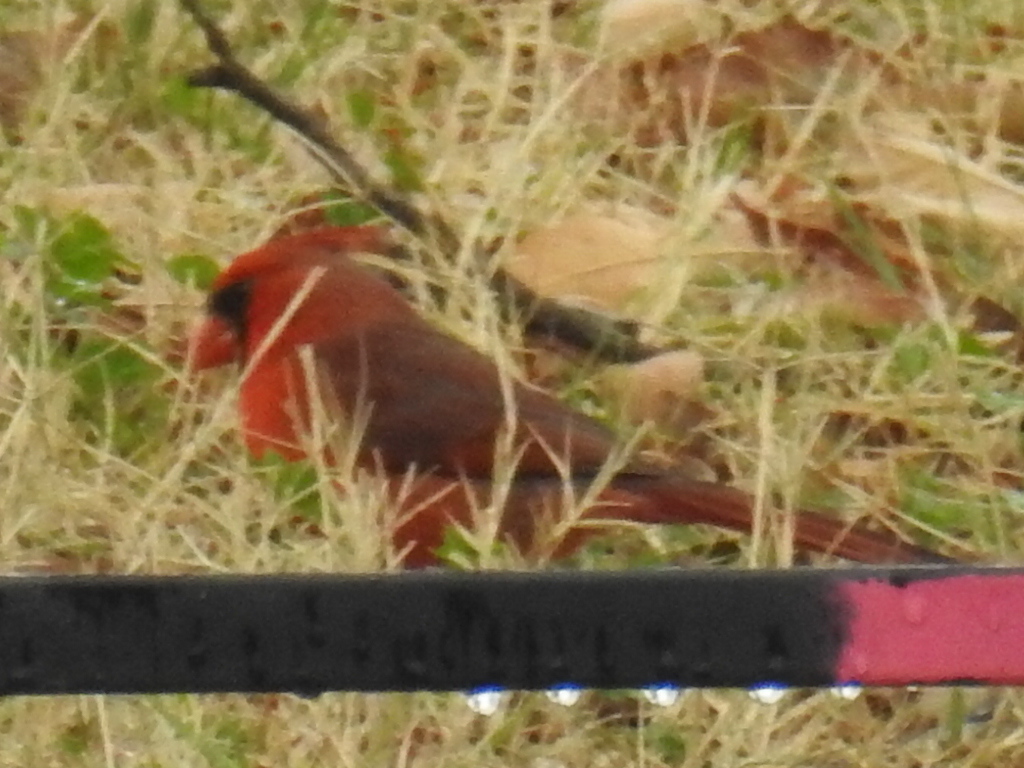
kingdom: Animalia
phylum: Chordata
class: Aves
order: Passeriformes
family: Cardinalidae
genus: Cardinalis
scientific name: Cardinalis cardinalis
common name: Northern cardinal
